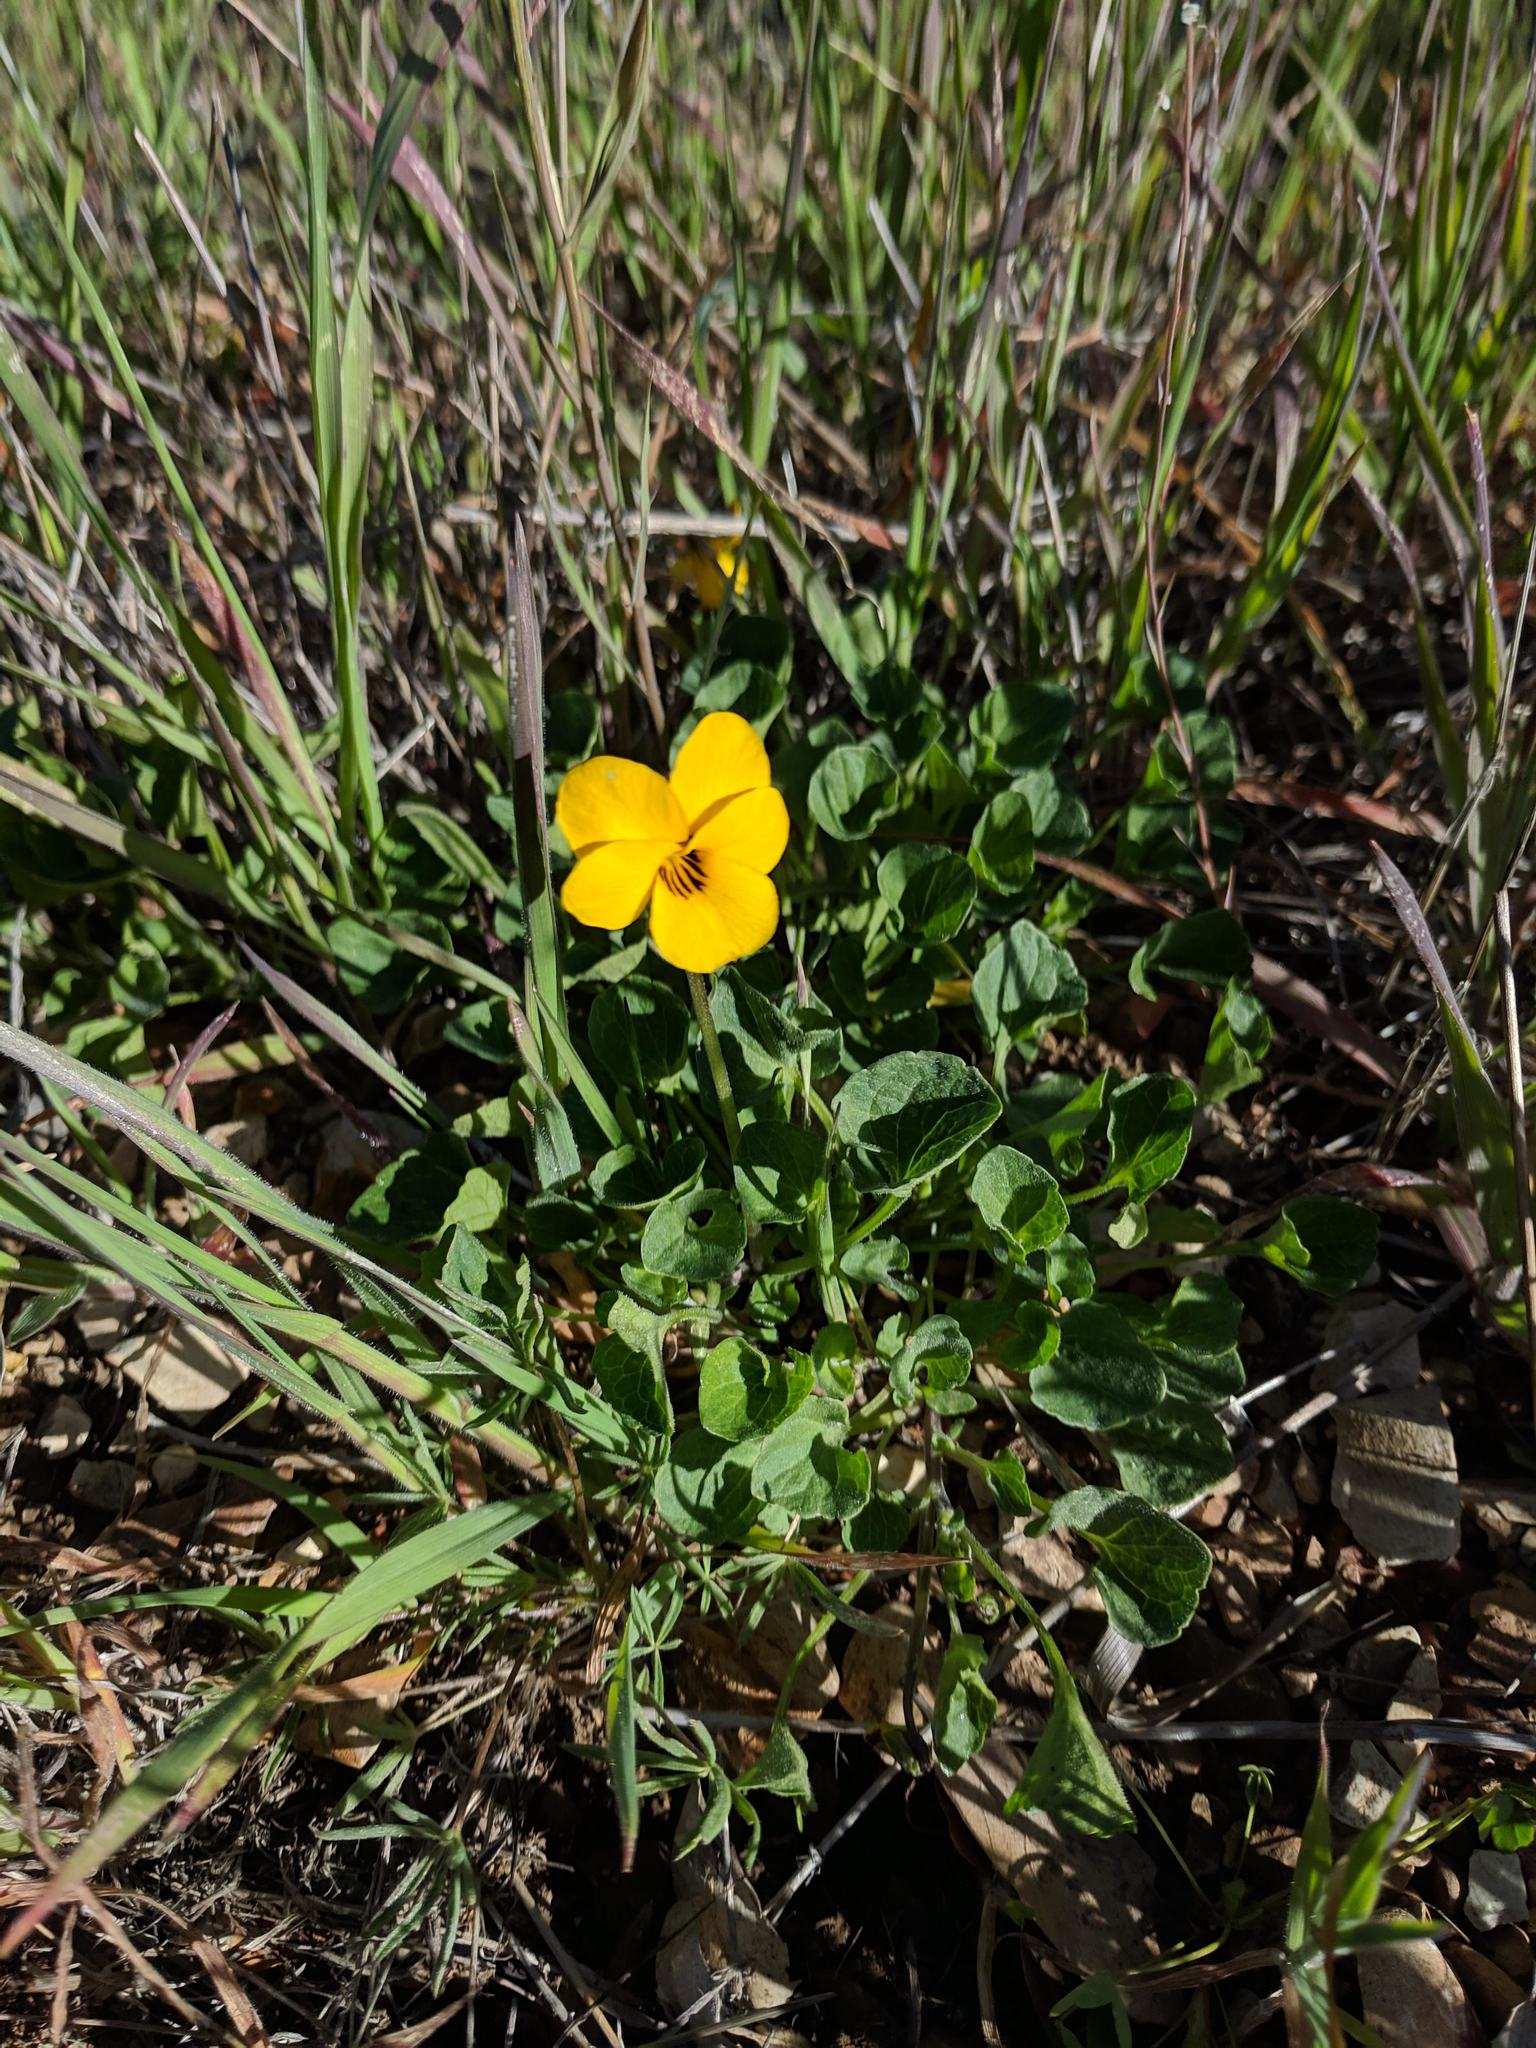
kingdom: Plantae
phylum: Tracheophyta
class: Magnoliopsida
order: Malpighiales
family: Violaceae
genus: Viola
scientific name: Viola pedunculata
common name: California golden violet
